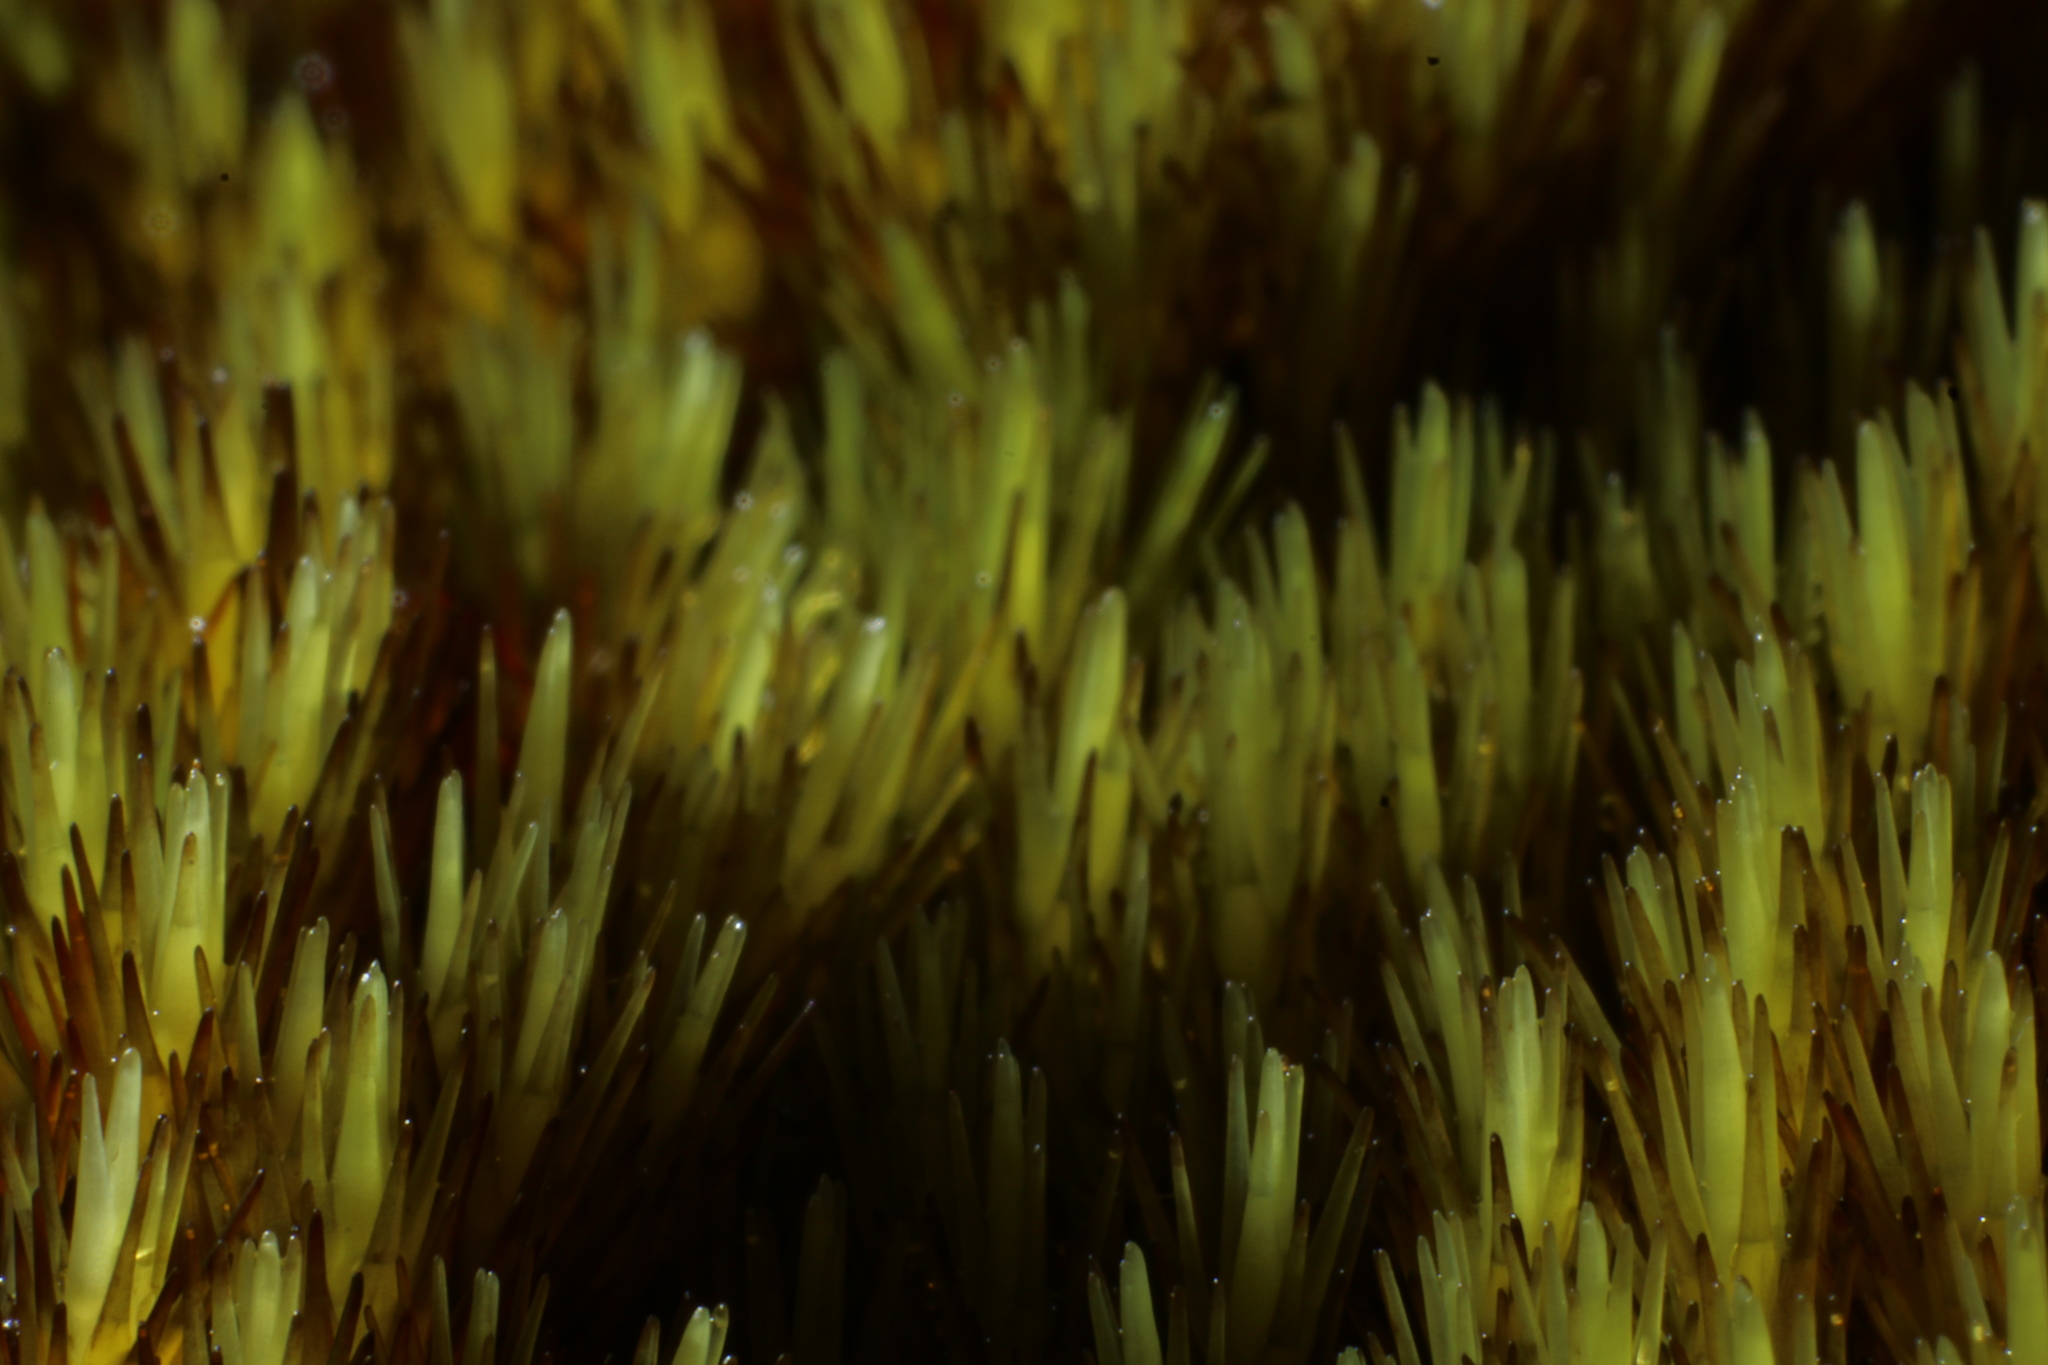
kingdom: Plantae
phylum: Bryophyta
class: Bryopsida
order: Dicranales
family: Leucobryaceae
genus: Campylopus
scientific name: Campylopus bicolor
